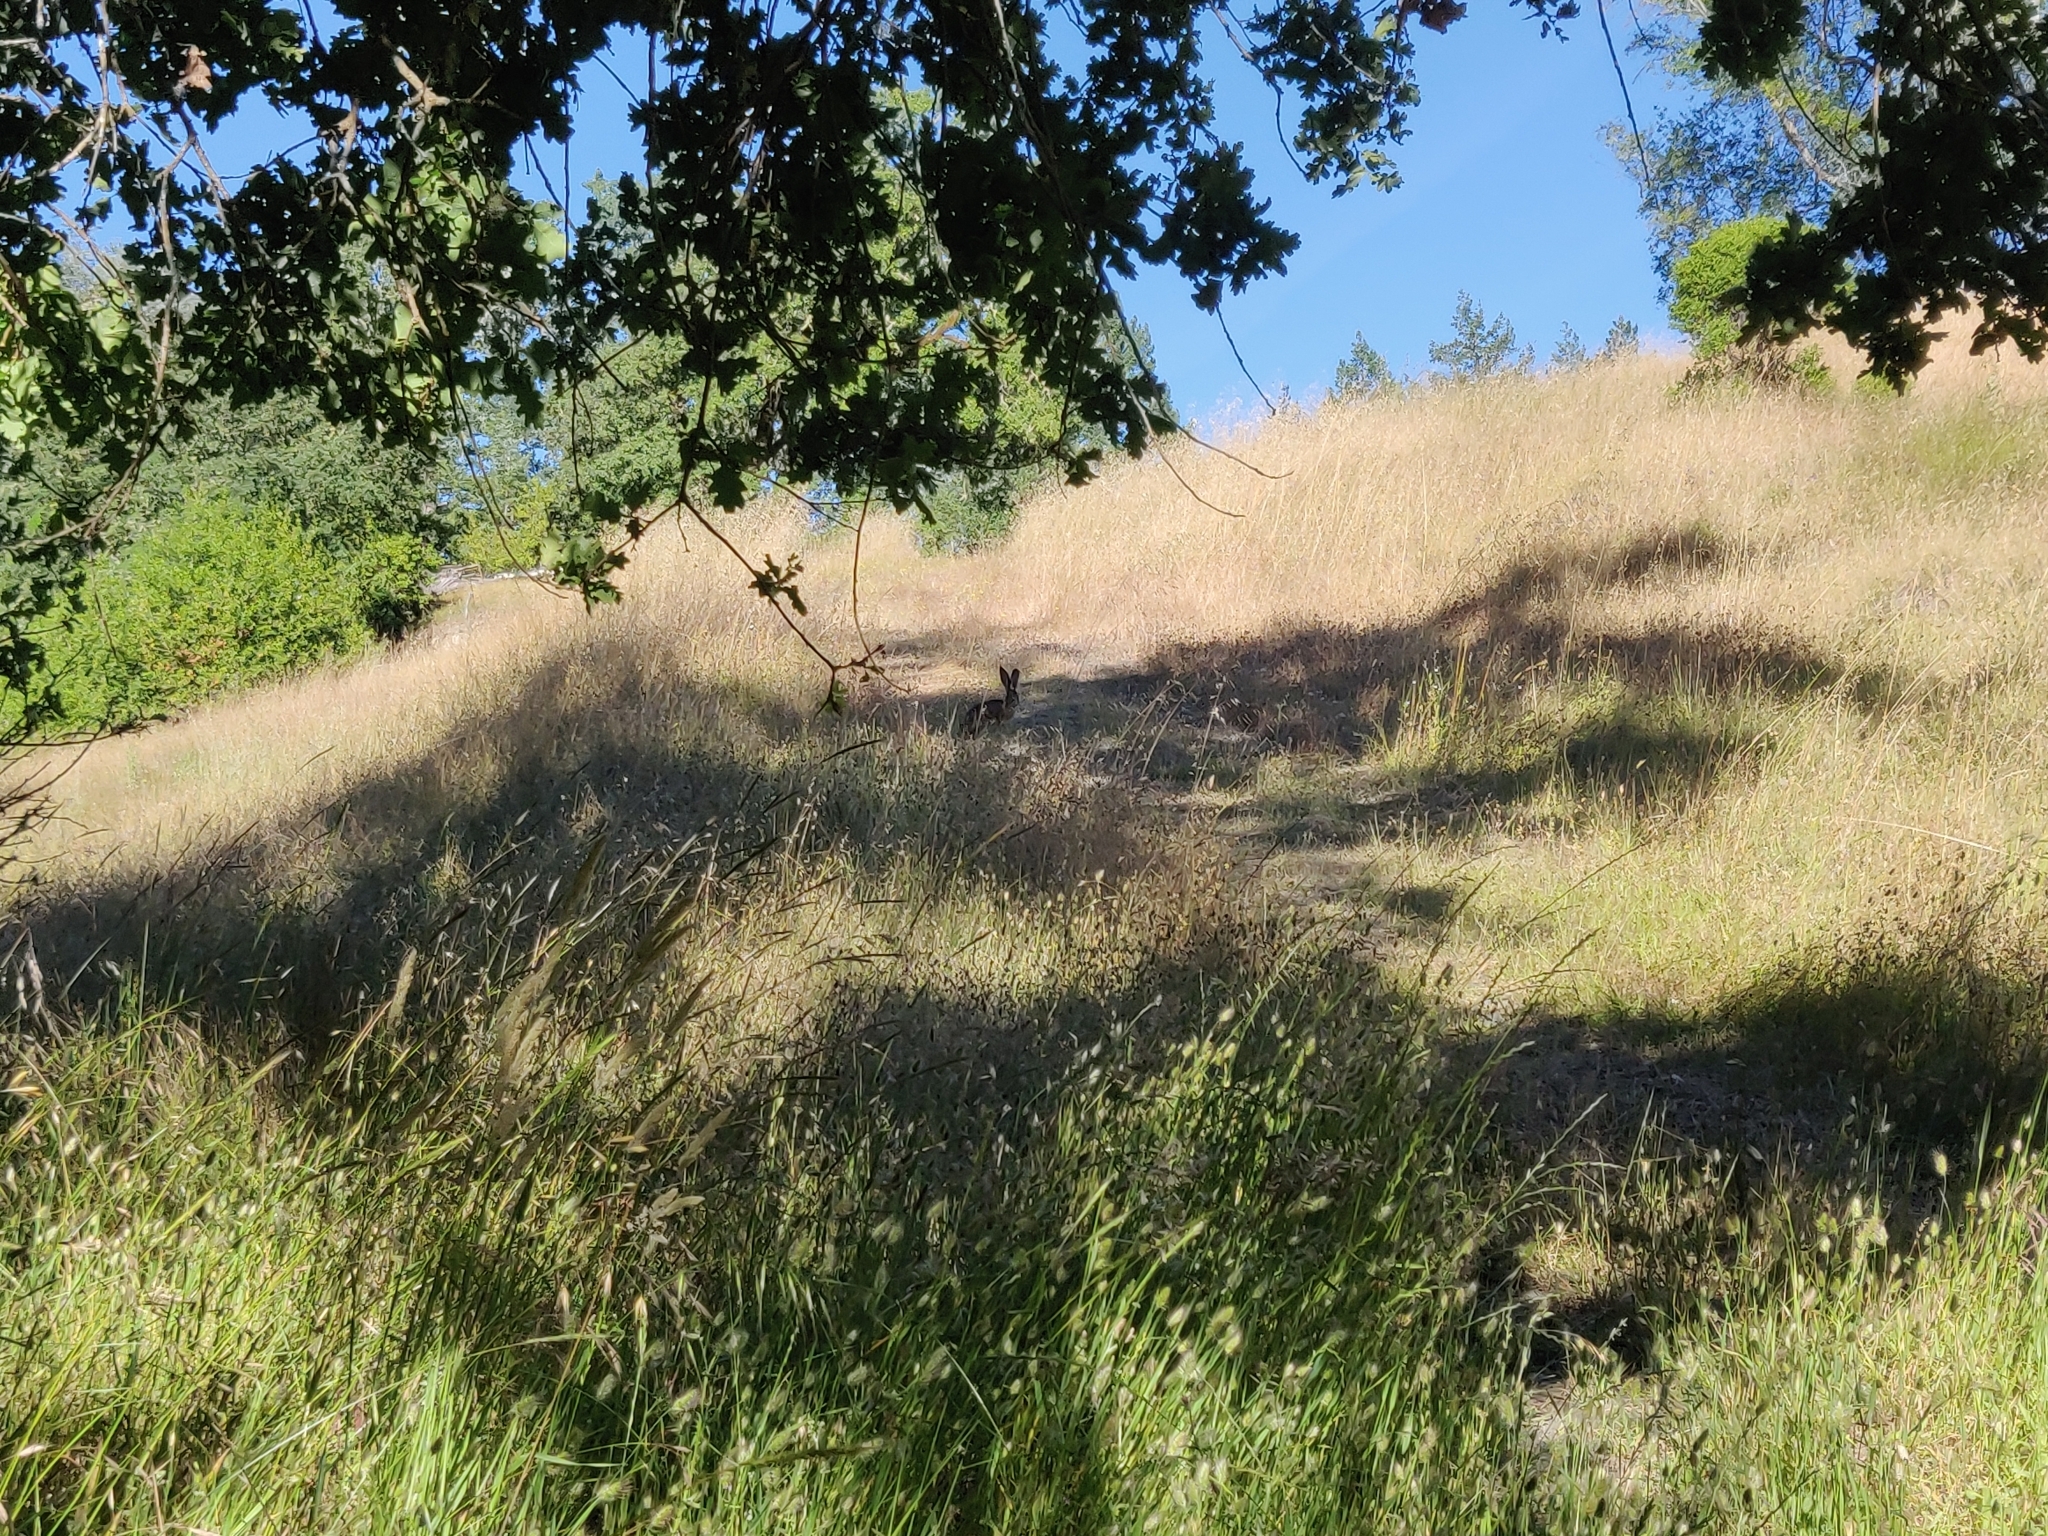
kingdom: Animalia
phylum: Chordata
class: Mammalia
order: Lagomorpha
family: Leporidae
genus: Lepus
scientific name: Lepus californicus
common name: Black-tailed jackrabbit
